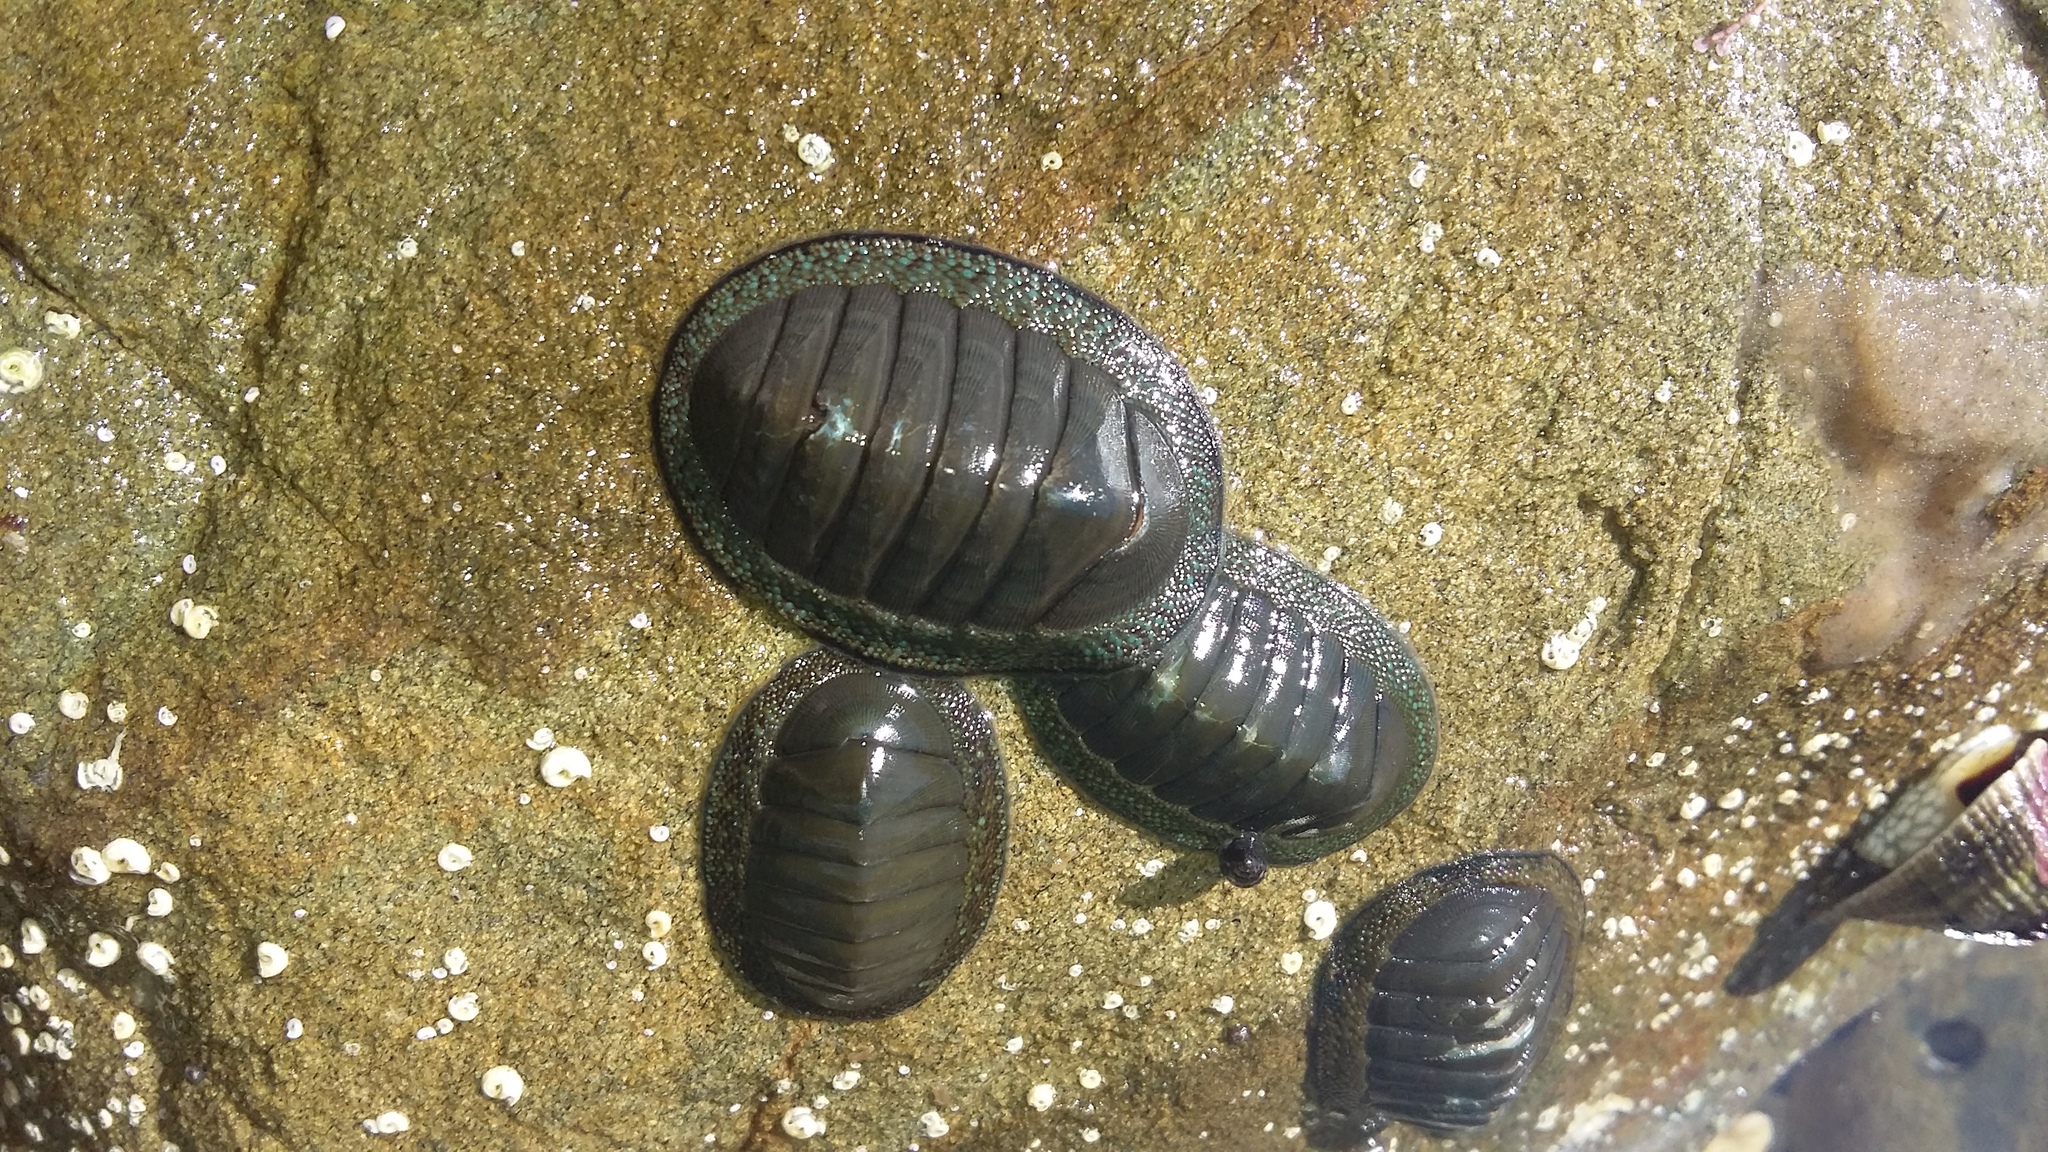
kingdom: Animalia
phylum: Mollusca
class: Polyplacophora
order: Chitonida
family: Chitonidae
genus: Chiton
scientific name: Chiton glaucus
